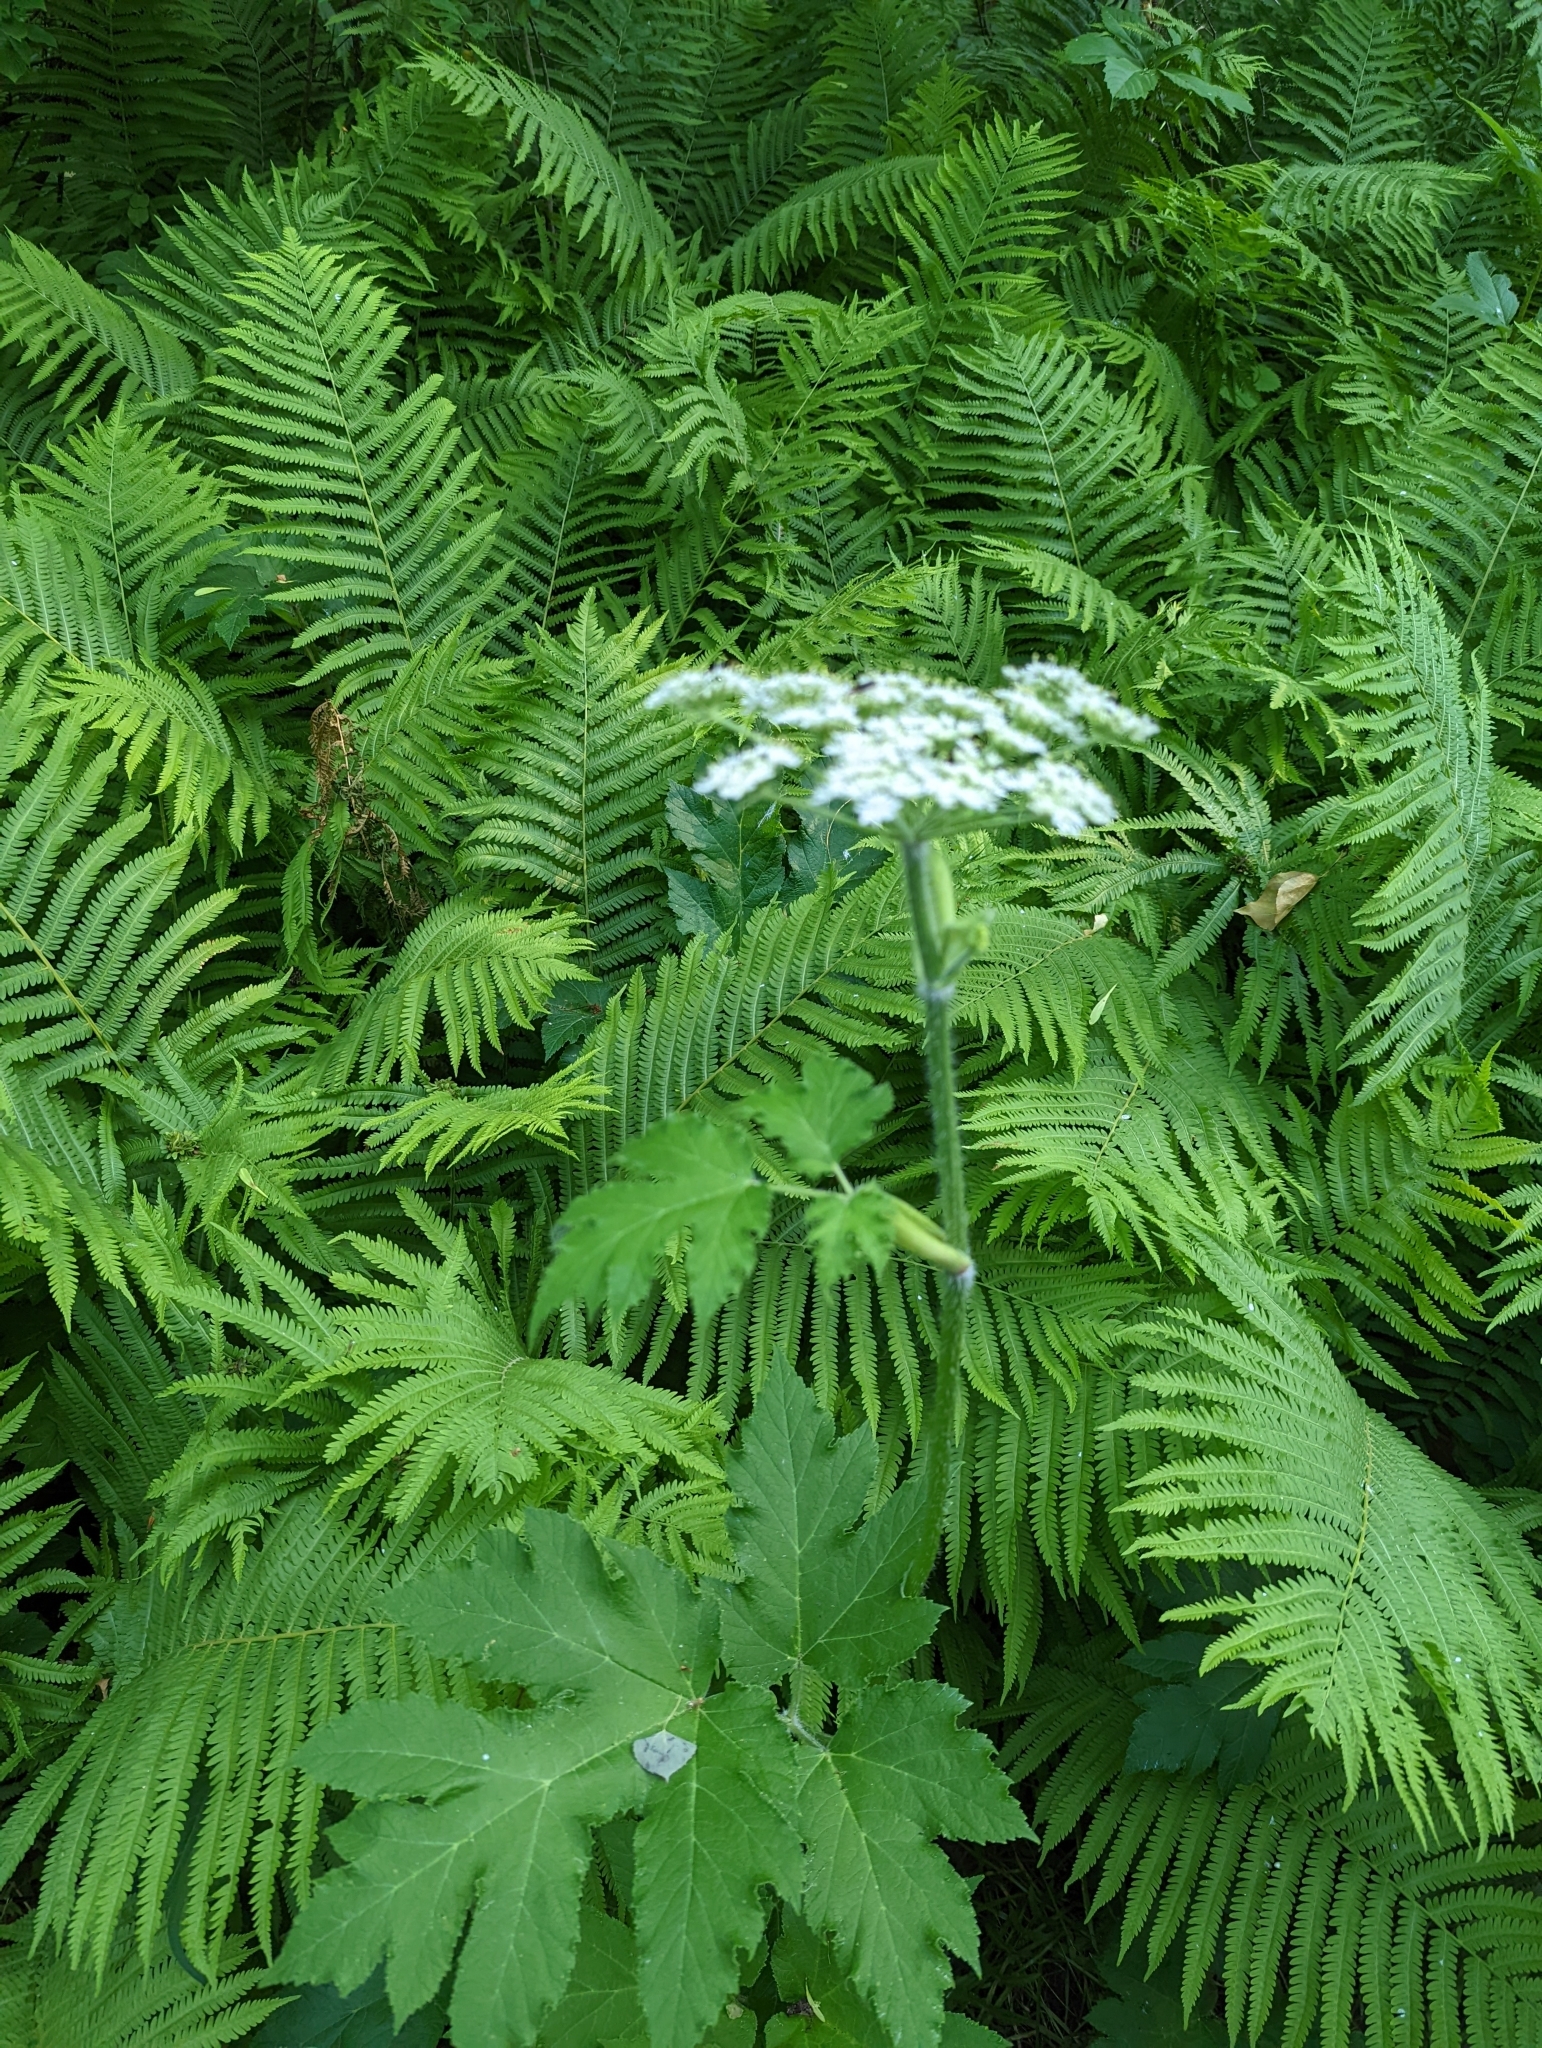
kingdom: Plantae
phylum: Tracheophyta
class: Magnoliopsida
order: Apiales
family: Apiaceae
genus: Heracleum
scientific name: Heracleum maximum
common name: American cow parsnip
